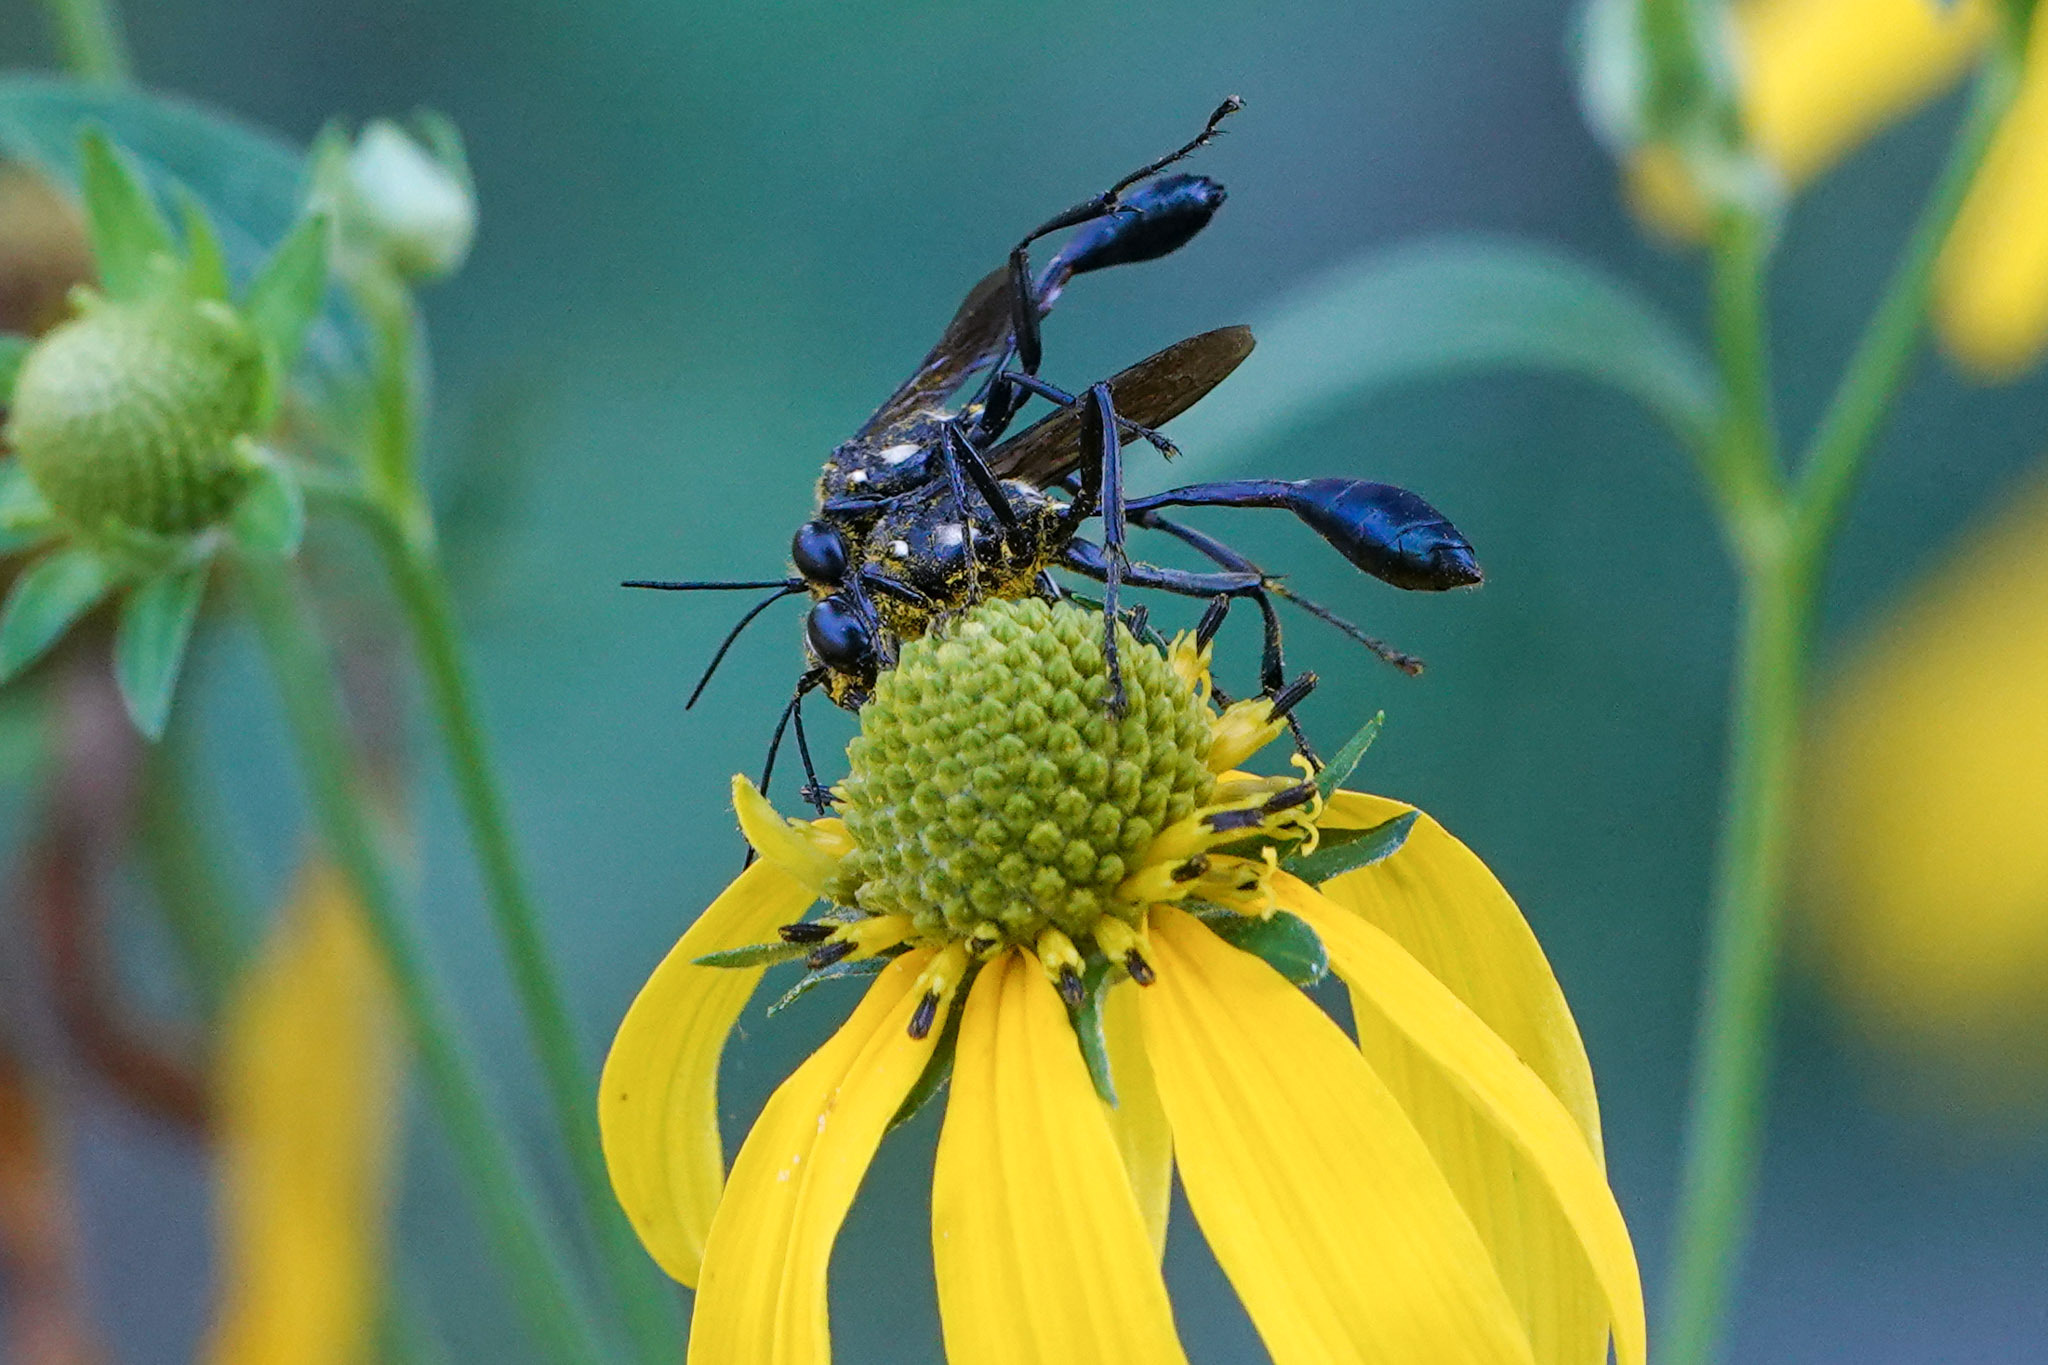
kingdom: Animalia
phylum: Arthropoda
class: Insecta
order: Hymenoptera
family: Sphecidae
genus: Eremnophila
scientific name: Eremnophila aureonotata
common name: Gold-marked thread-waisted wasp
